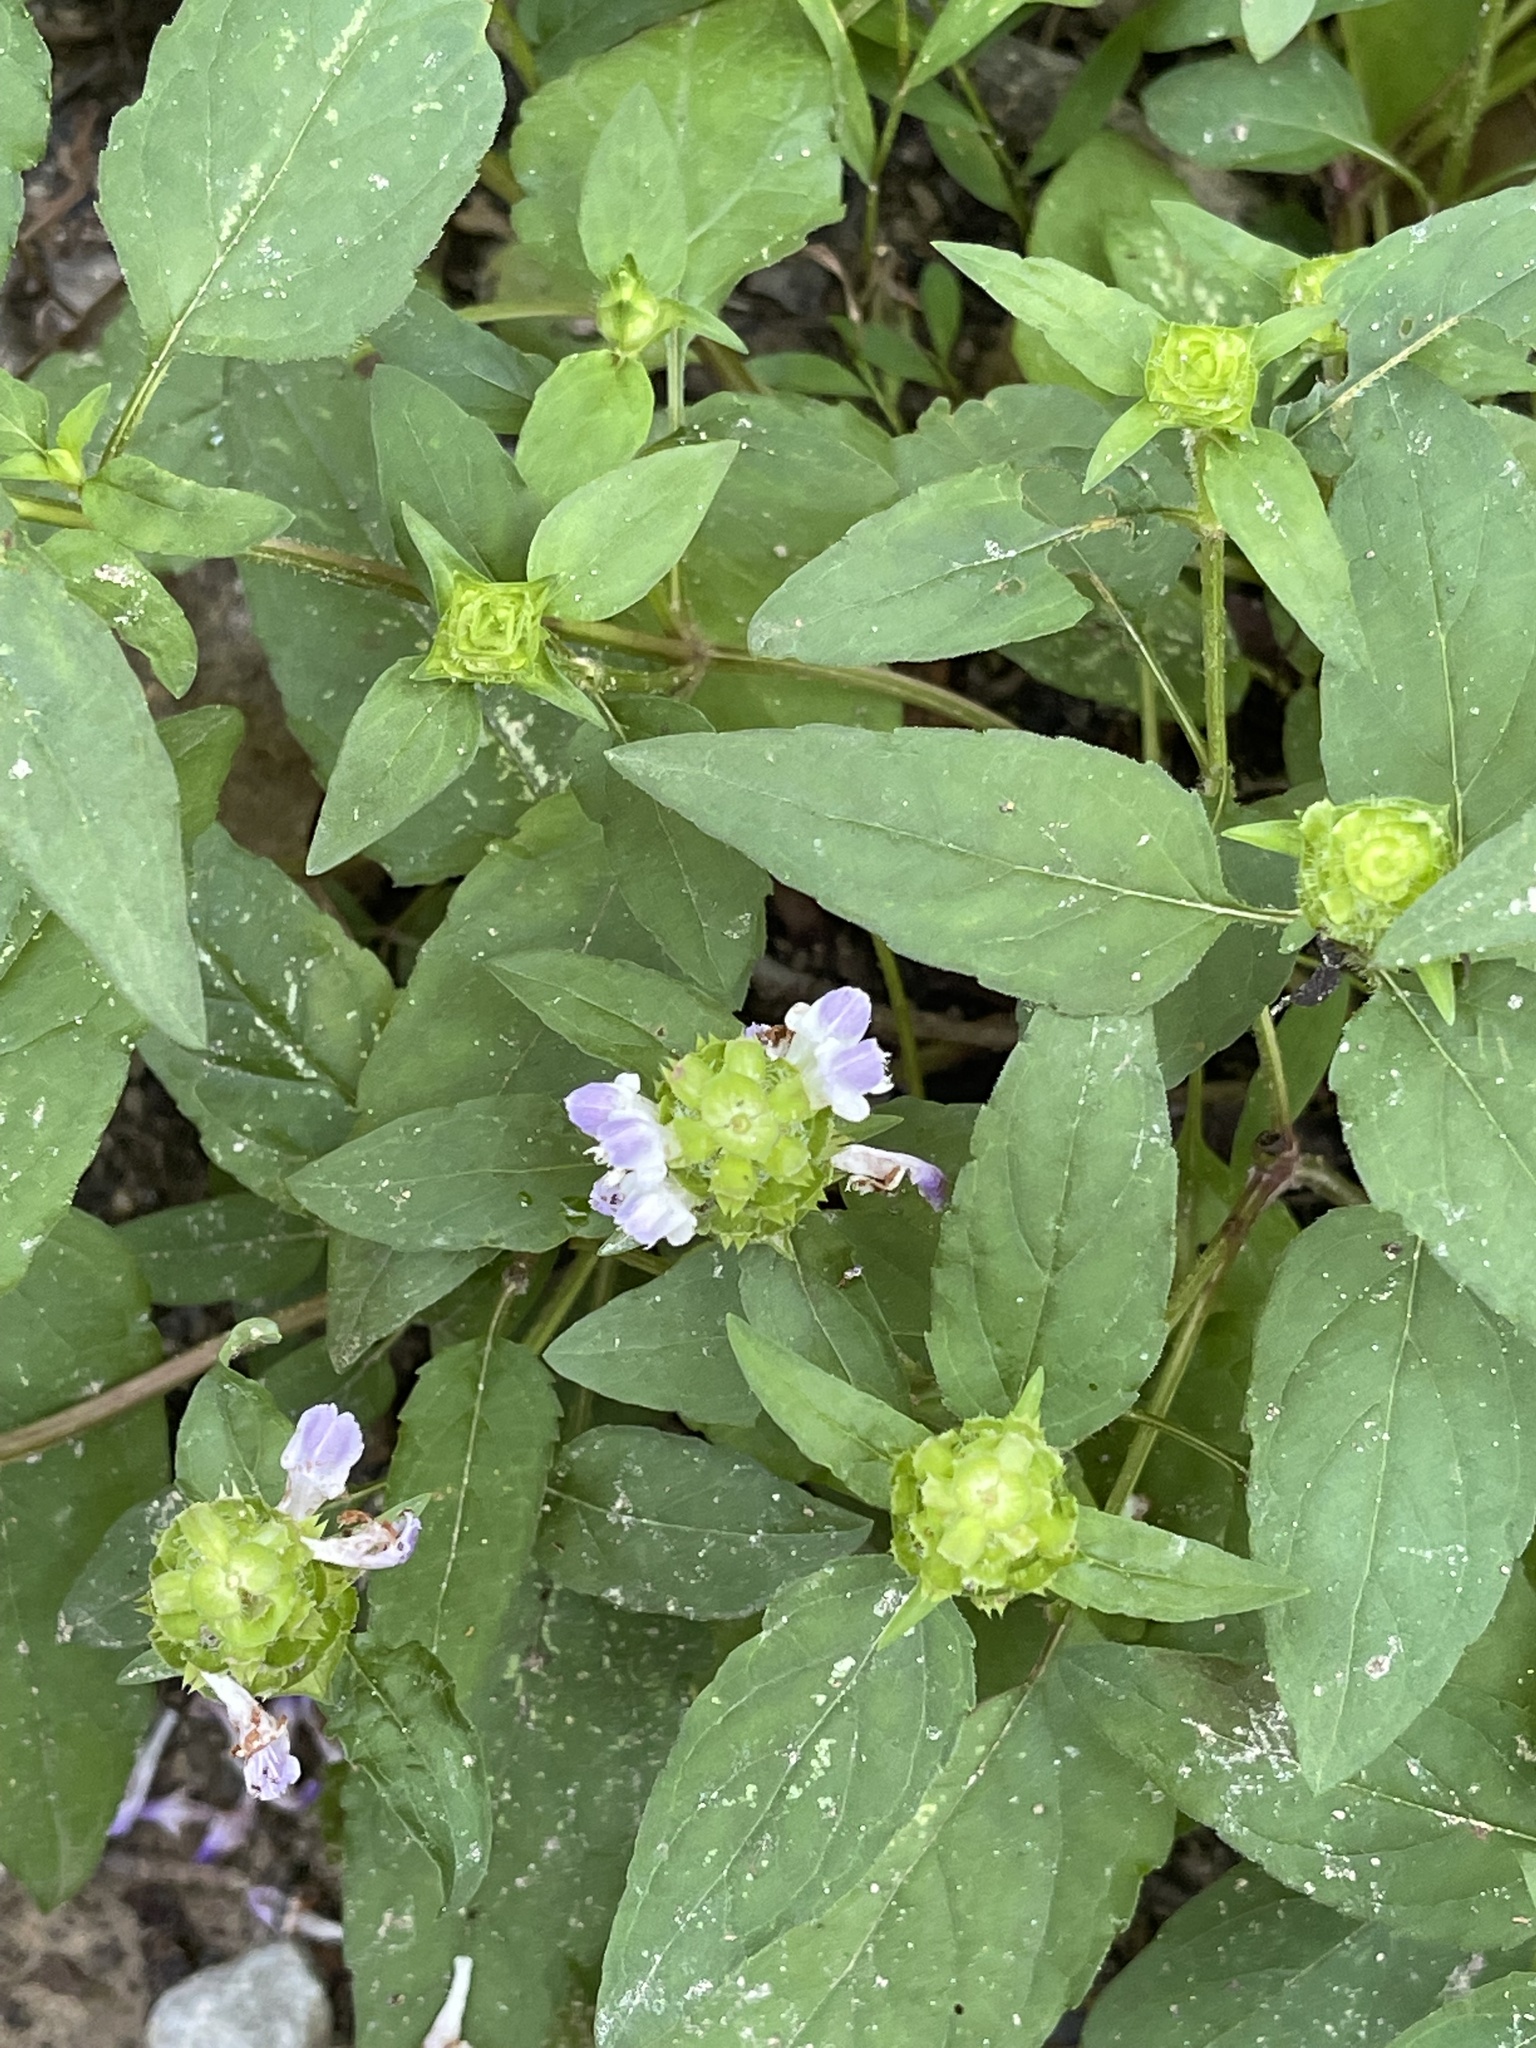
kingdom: Plantae
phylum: Tracheophyta
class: Magnoliopsida
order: Lamiales
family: Lamiaceae
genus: Prunella
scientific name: Prunella vulgaris
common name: Heal-all
